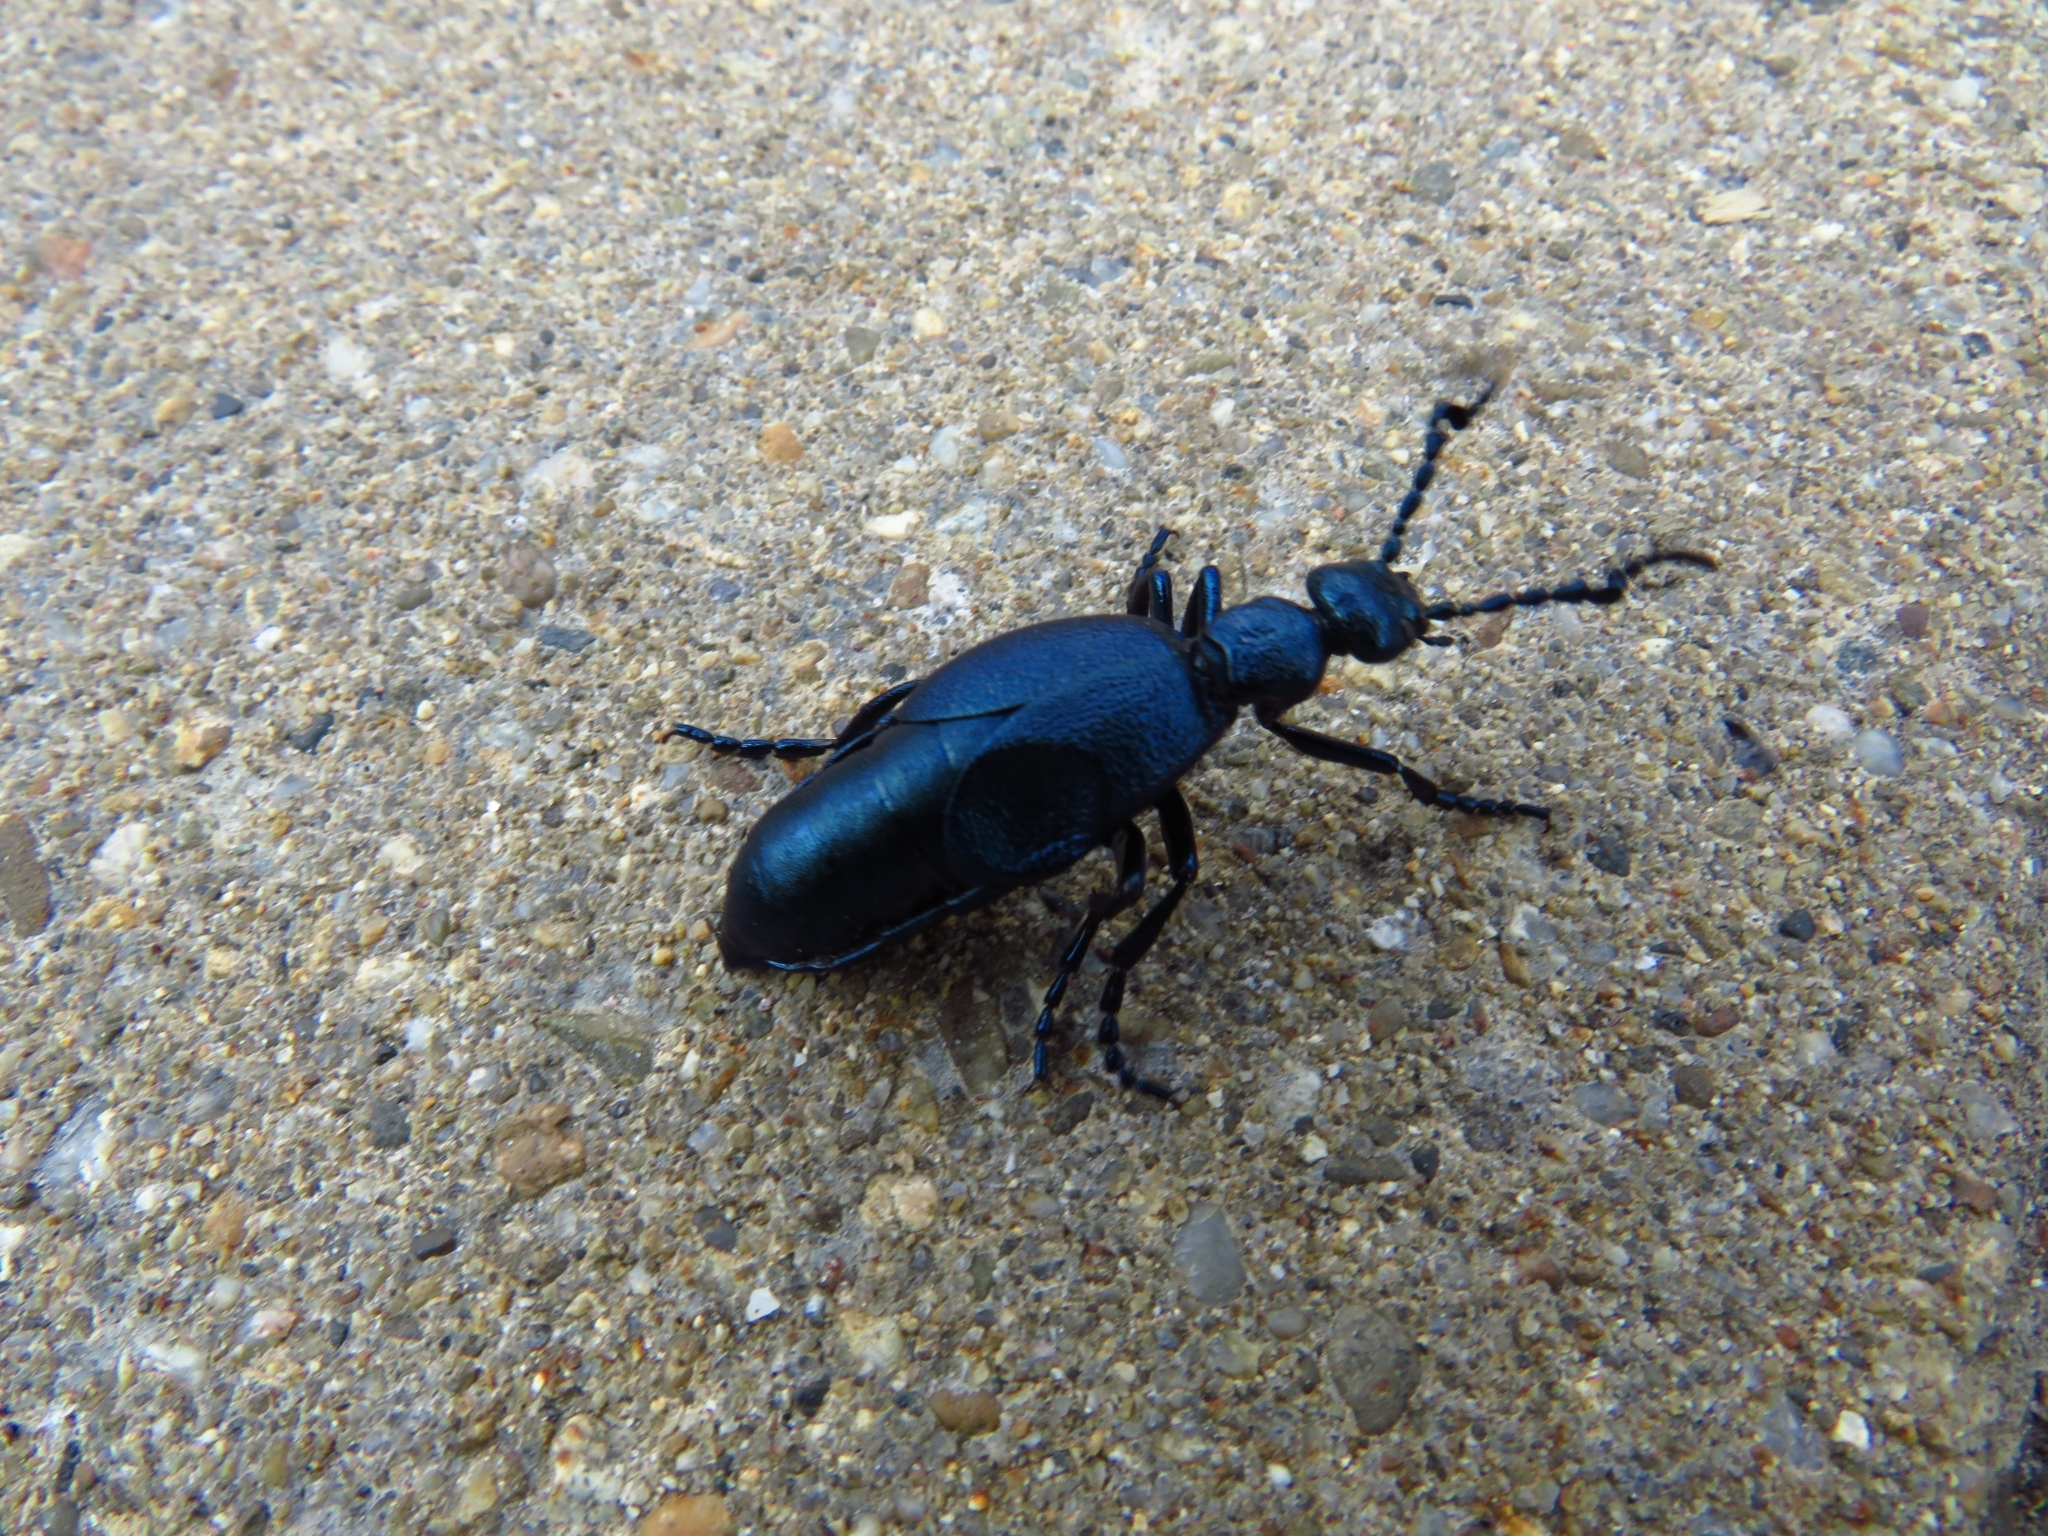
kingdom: Animalia
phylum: Arthropoda
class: Insecta
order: Coleoptera
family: Meloidae
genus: Meloe
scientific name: Meloe proscarabaeus
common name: Black oil-beetle
